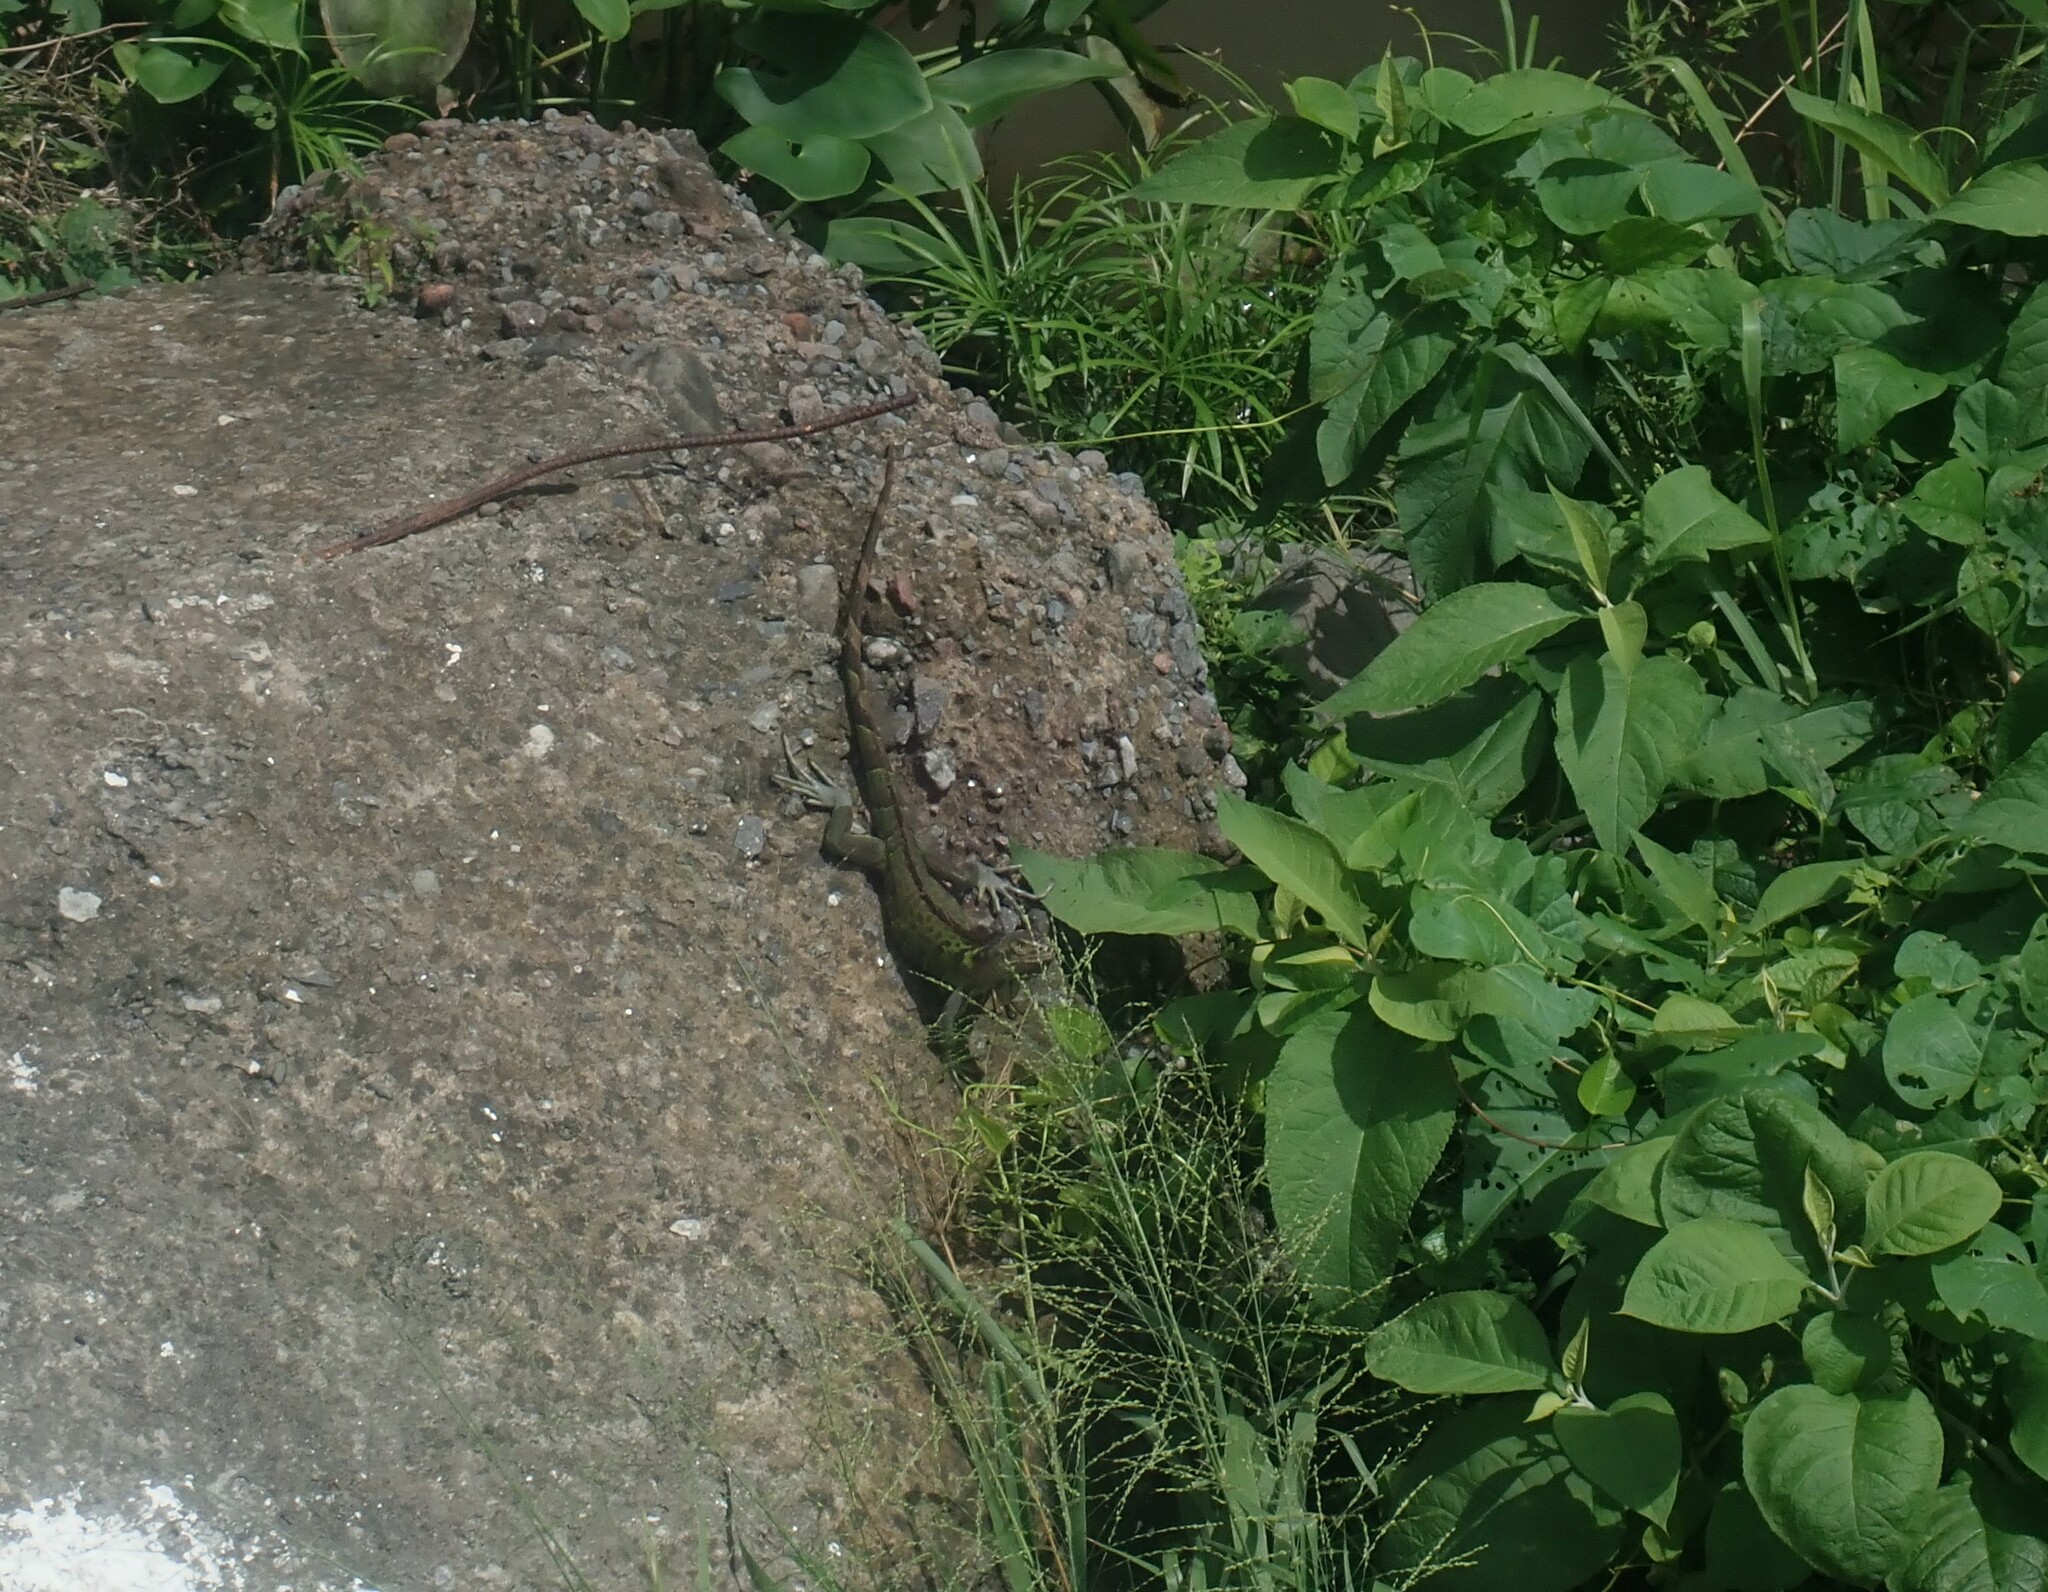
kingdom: Animalia
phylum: Chordata
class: Squamata
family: Iguanidae
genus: Iguana
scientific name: Iguana iguana
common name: Green iguana
